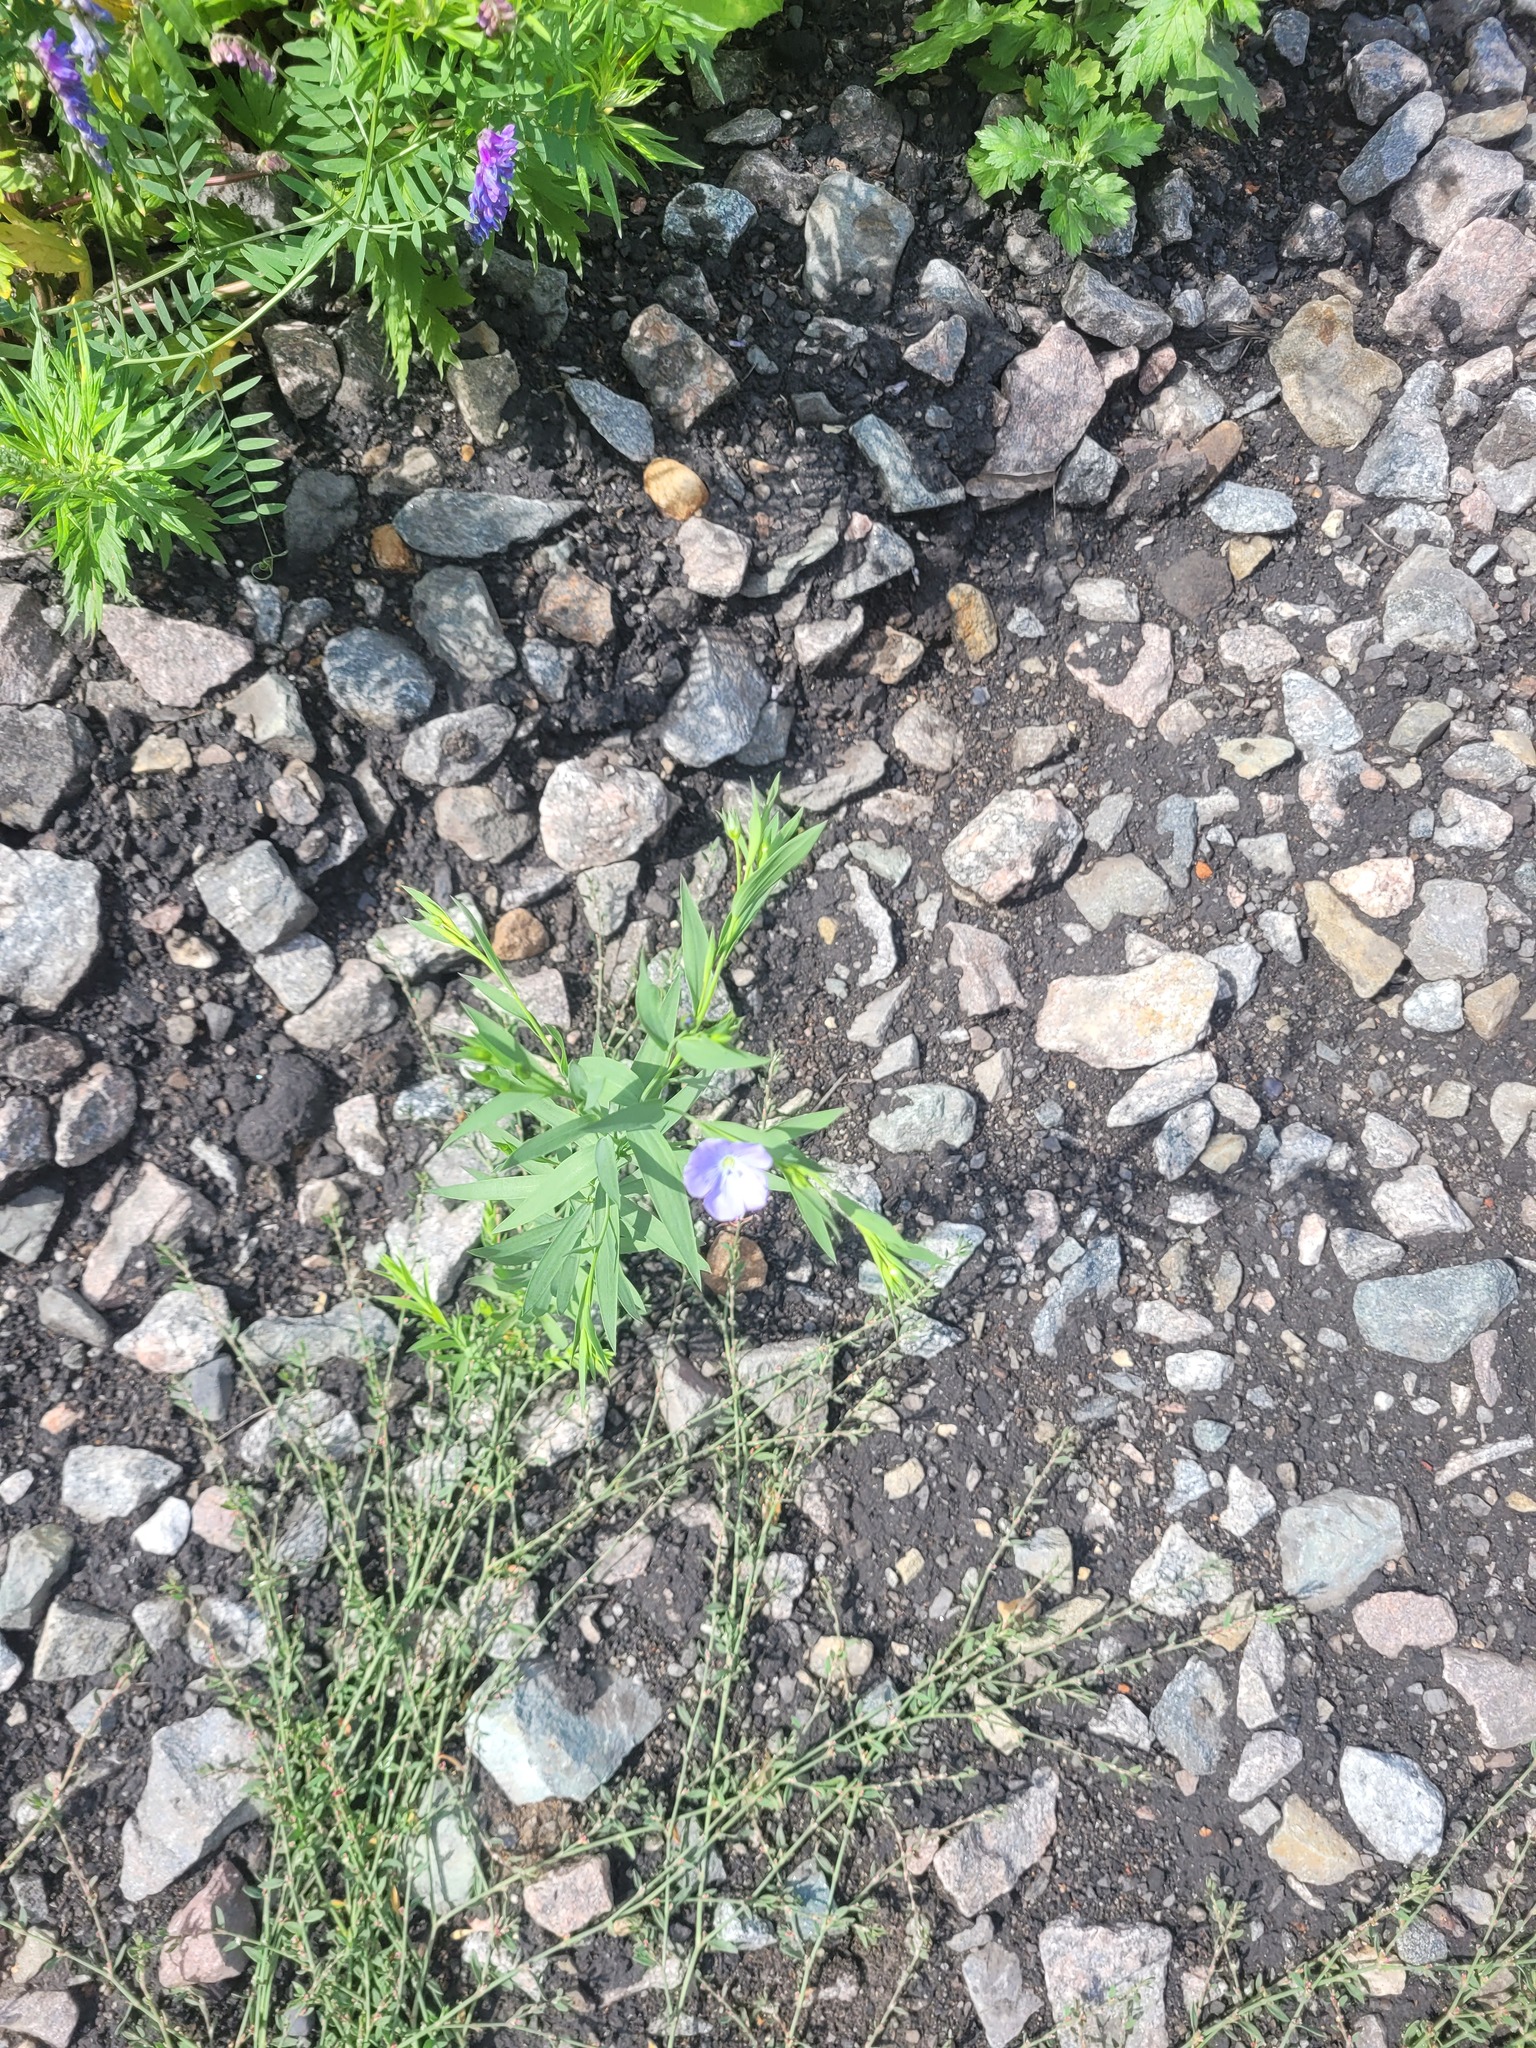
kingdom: Plantae
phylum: Tracheophyta
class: Magnoliopsida
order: Malpighiales
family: Linaceae
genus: Linum
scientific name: Linum usitatissimum
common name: Flax
